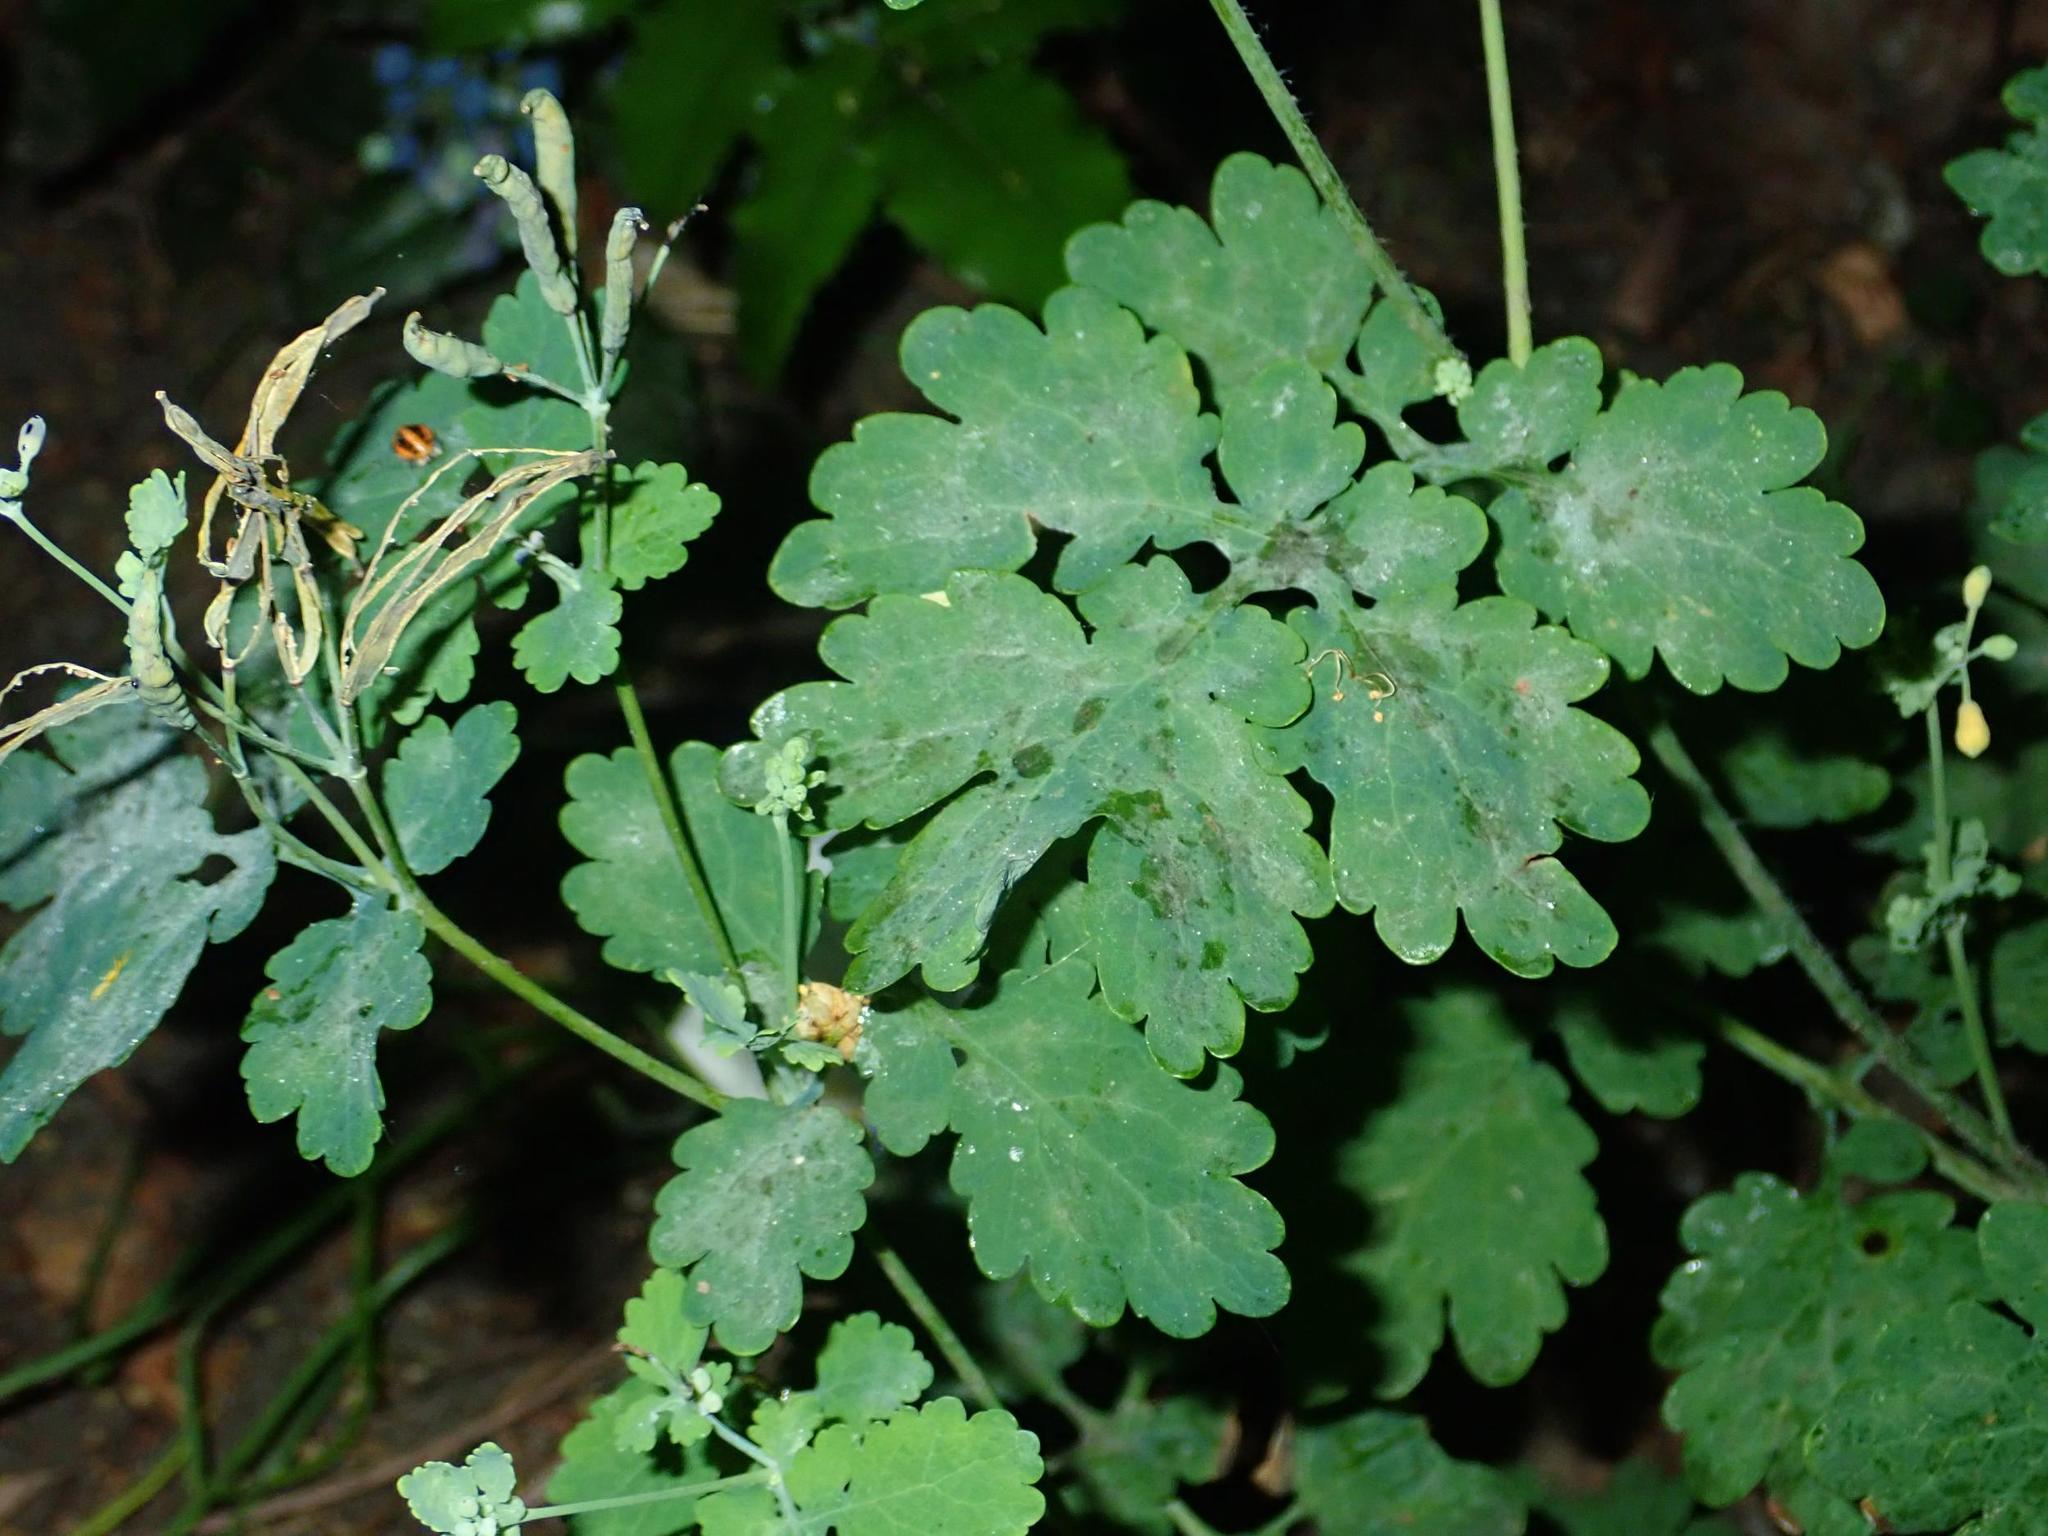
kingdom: Plantae
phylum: Tracheophyta
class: Magnoliopsida
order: Ranunculales
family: Papaveraceae
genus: Chelidonium
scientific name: Chelidonium majus
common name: Greater celandine
